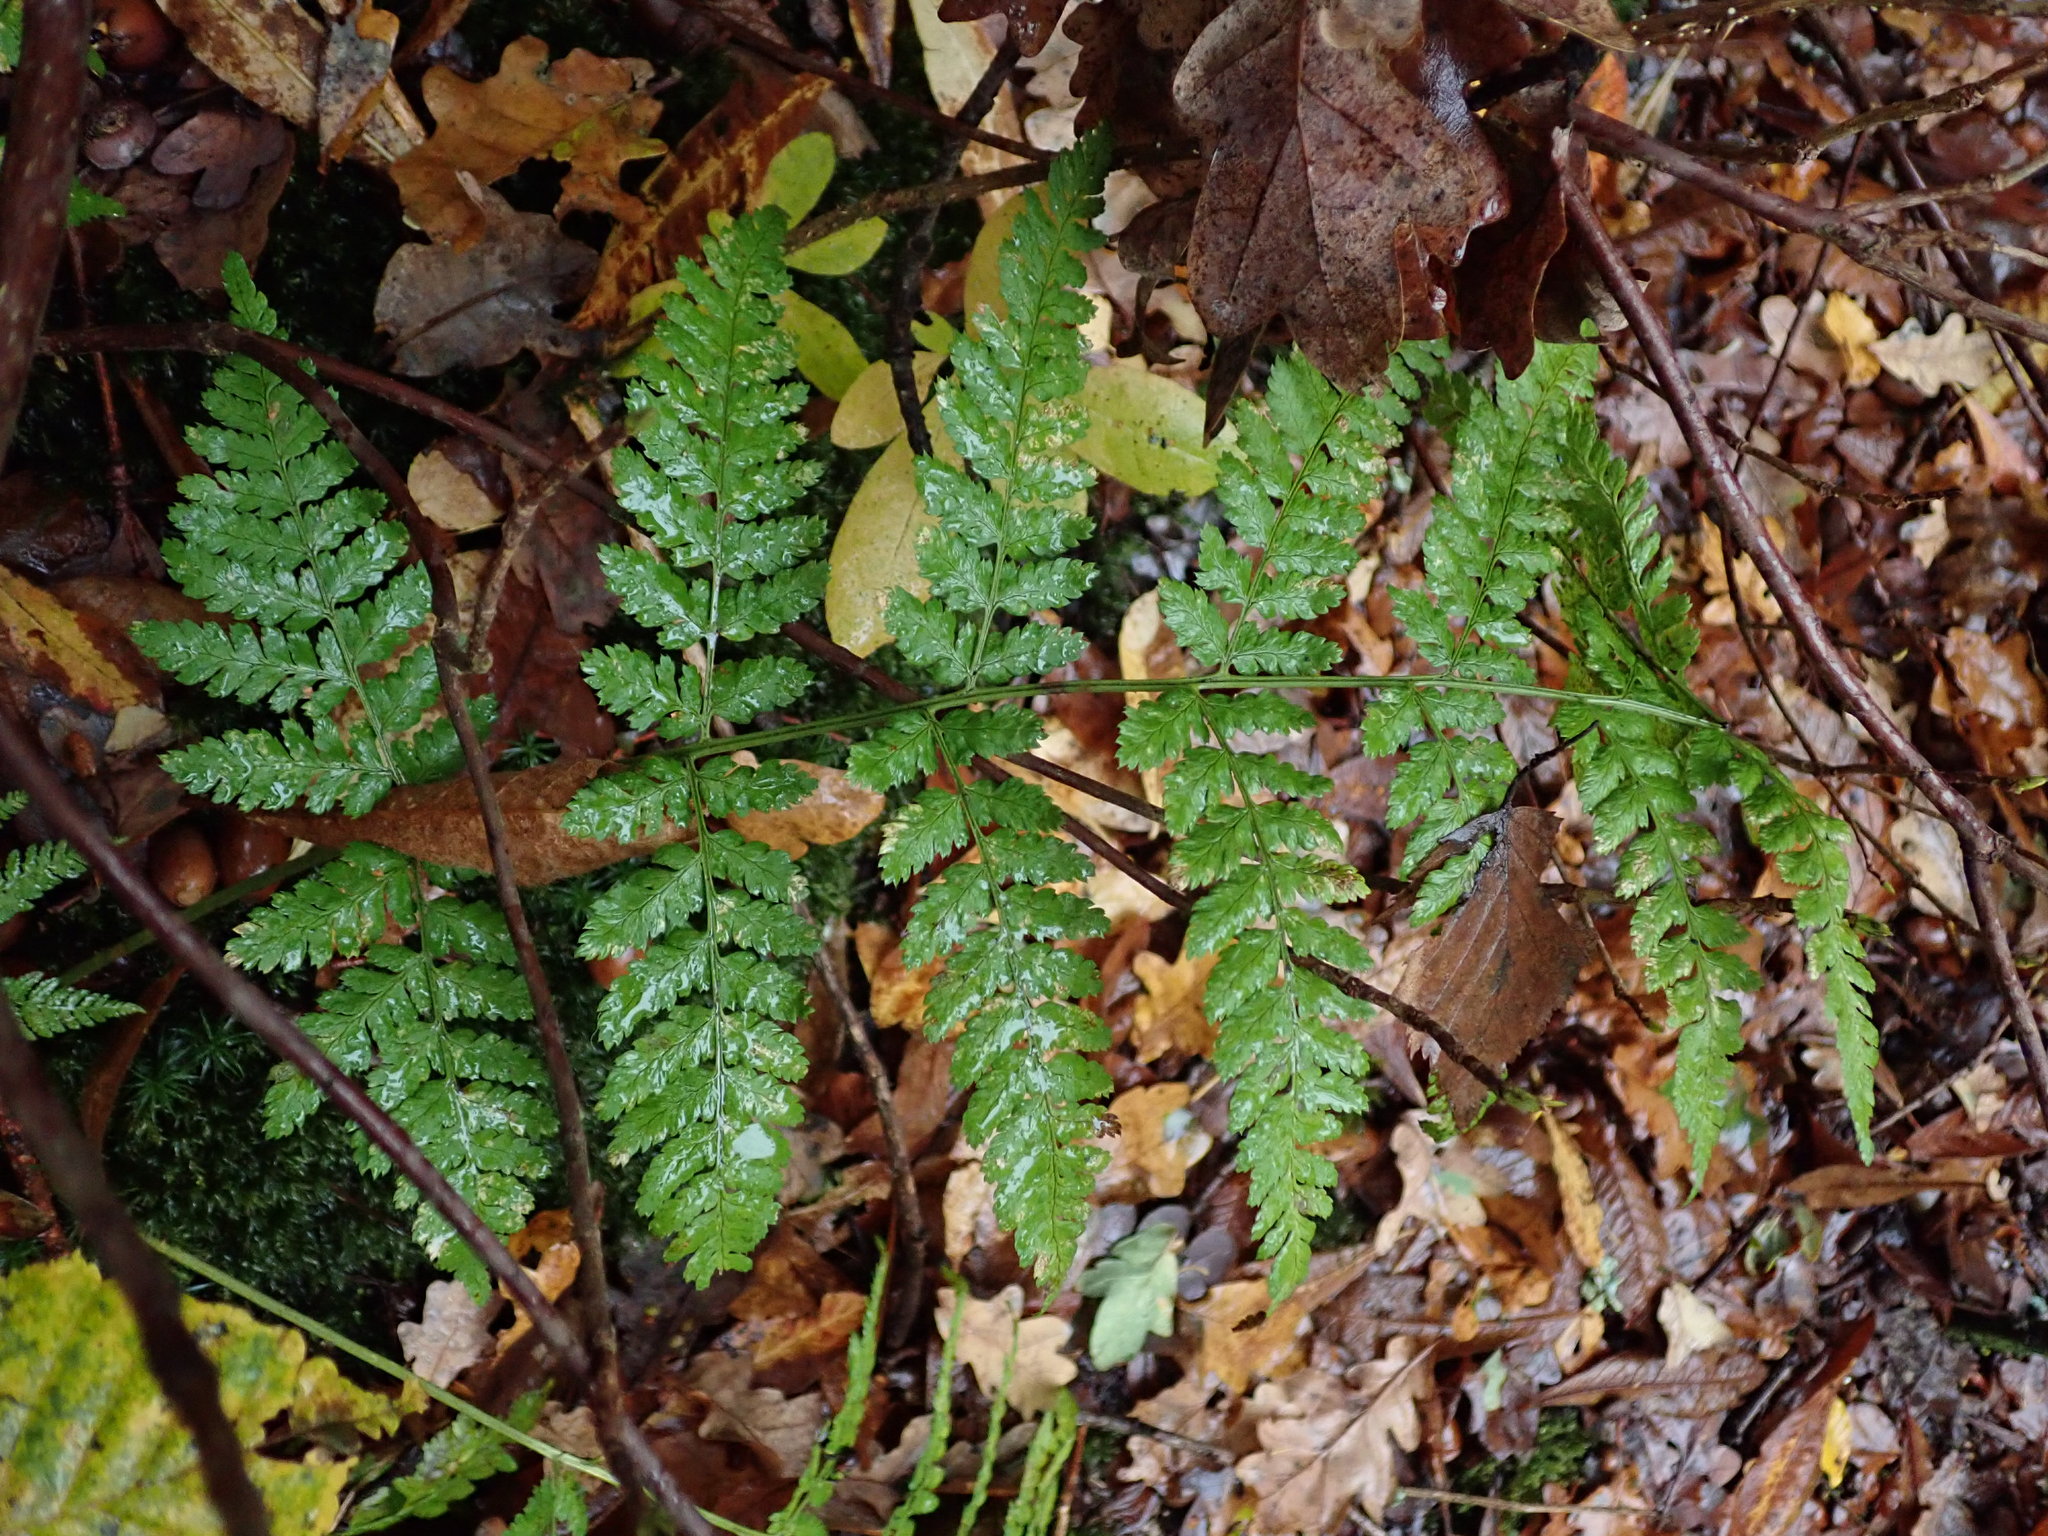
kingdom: Plantae
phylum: Tracheophyta
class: Polypodiopsida
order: Polypodiales
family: Dryopteridaceae
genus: Dryopteris
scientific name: Dryopteris dilatata
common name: Broad buckler-fern
